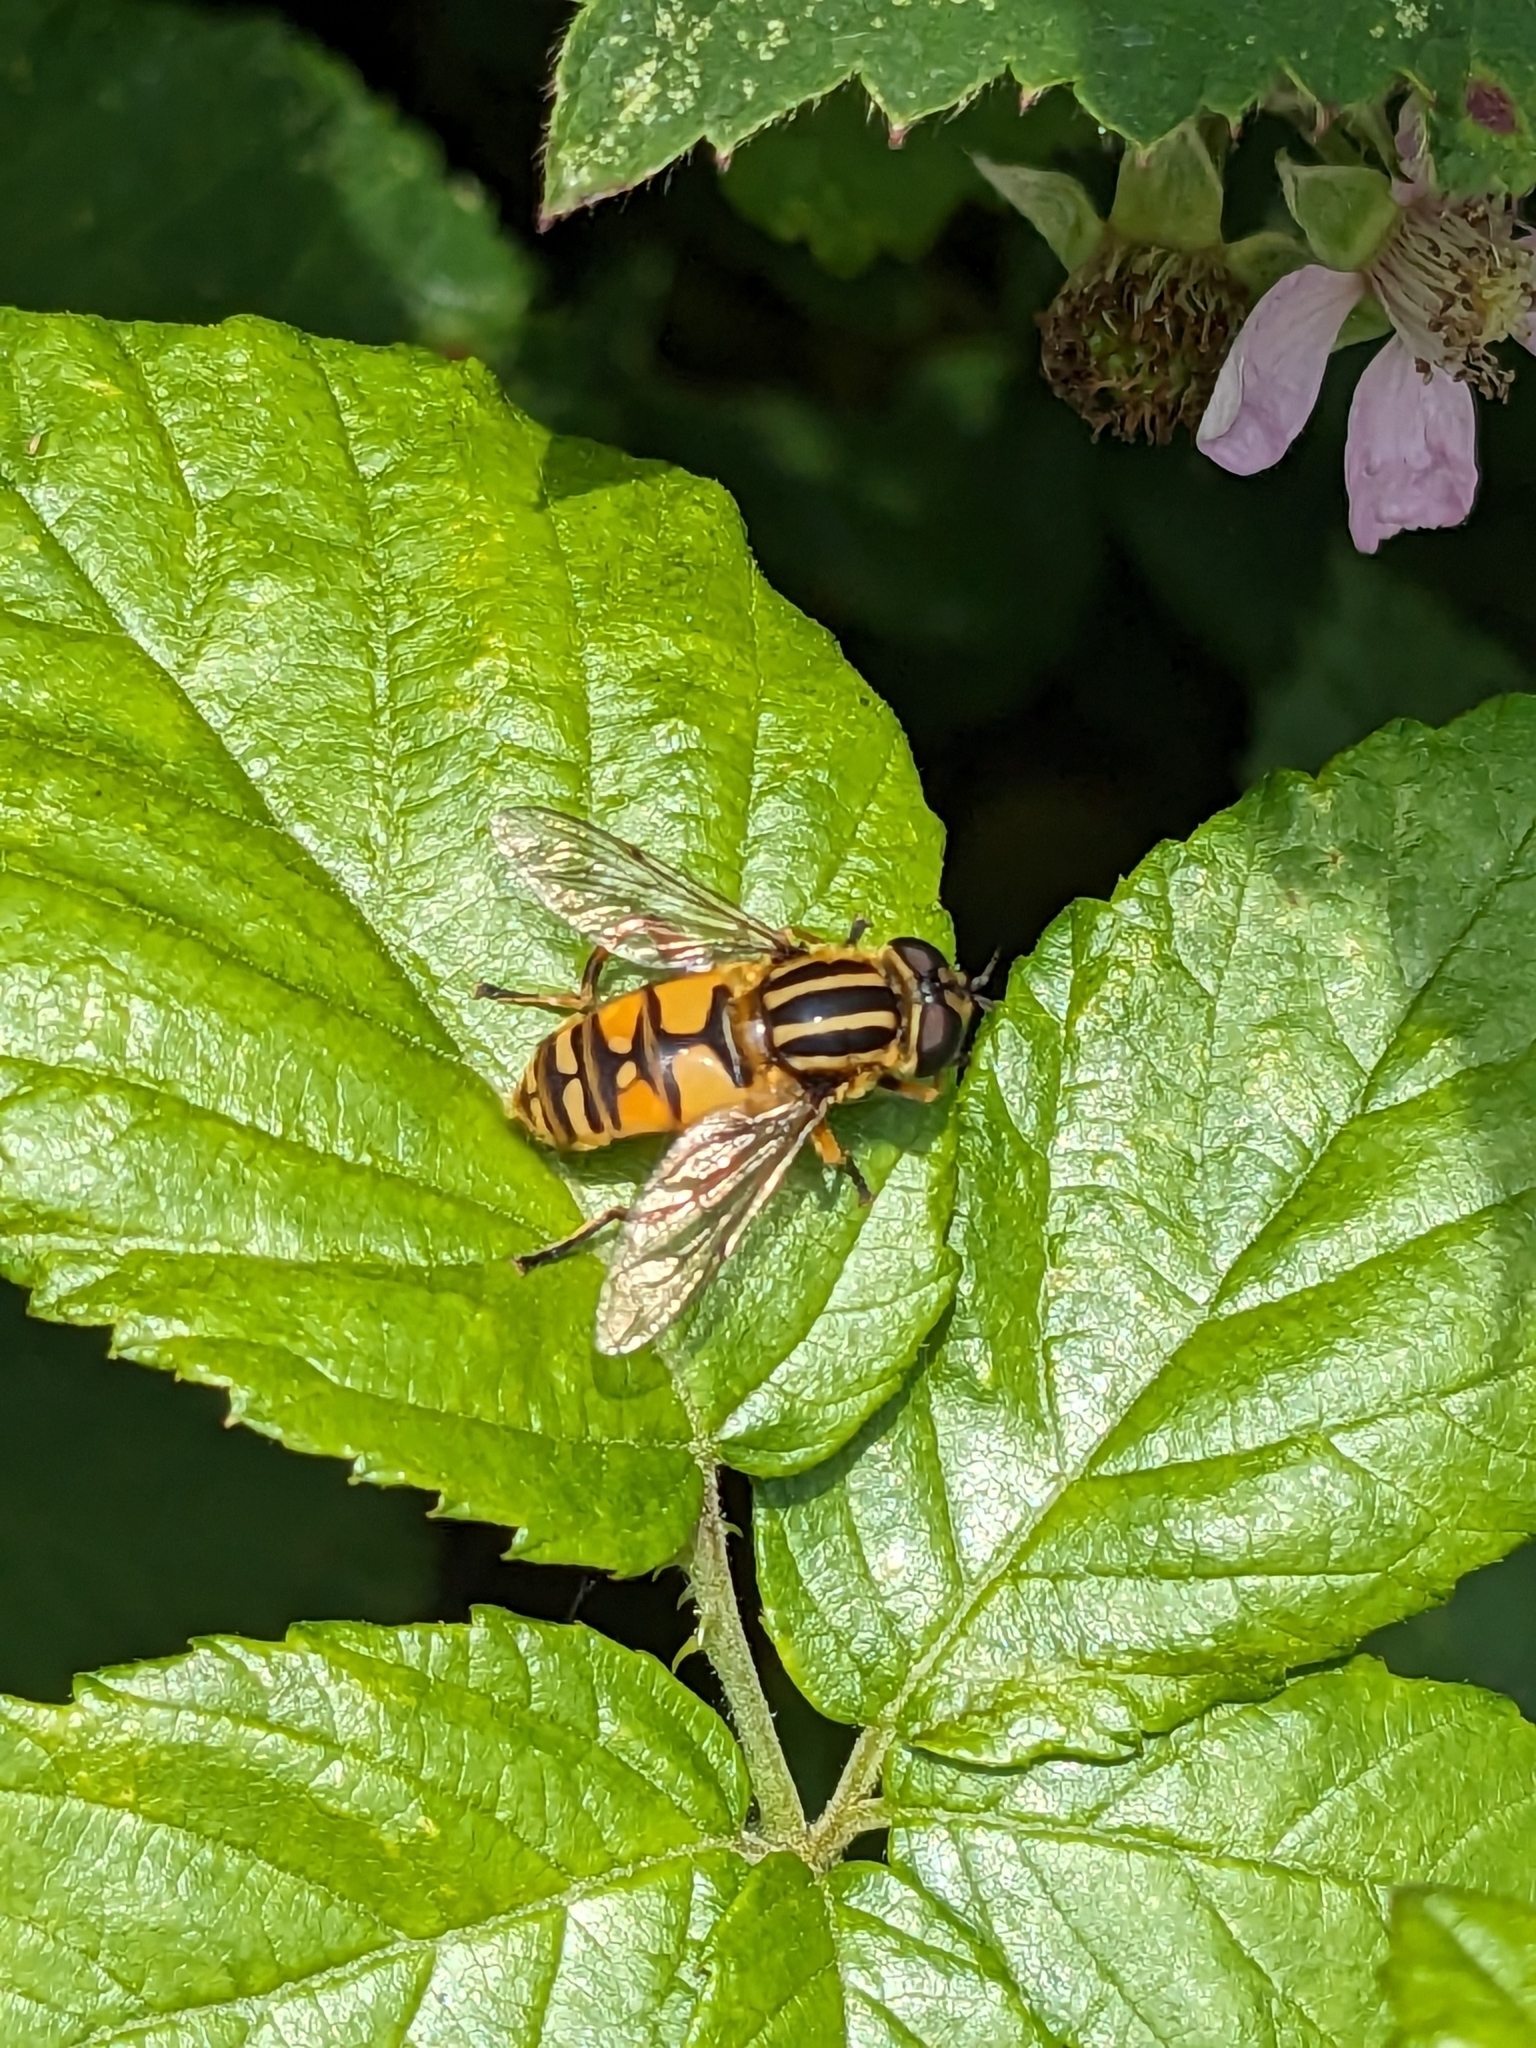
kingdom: Animalia
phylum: Arthropoda
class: Insecta
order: Diptera
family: Syrphidae
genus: Helophilus
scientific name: Helophilus pendulus
